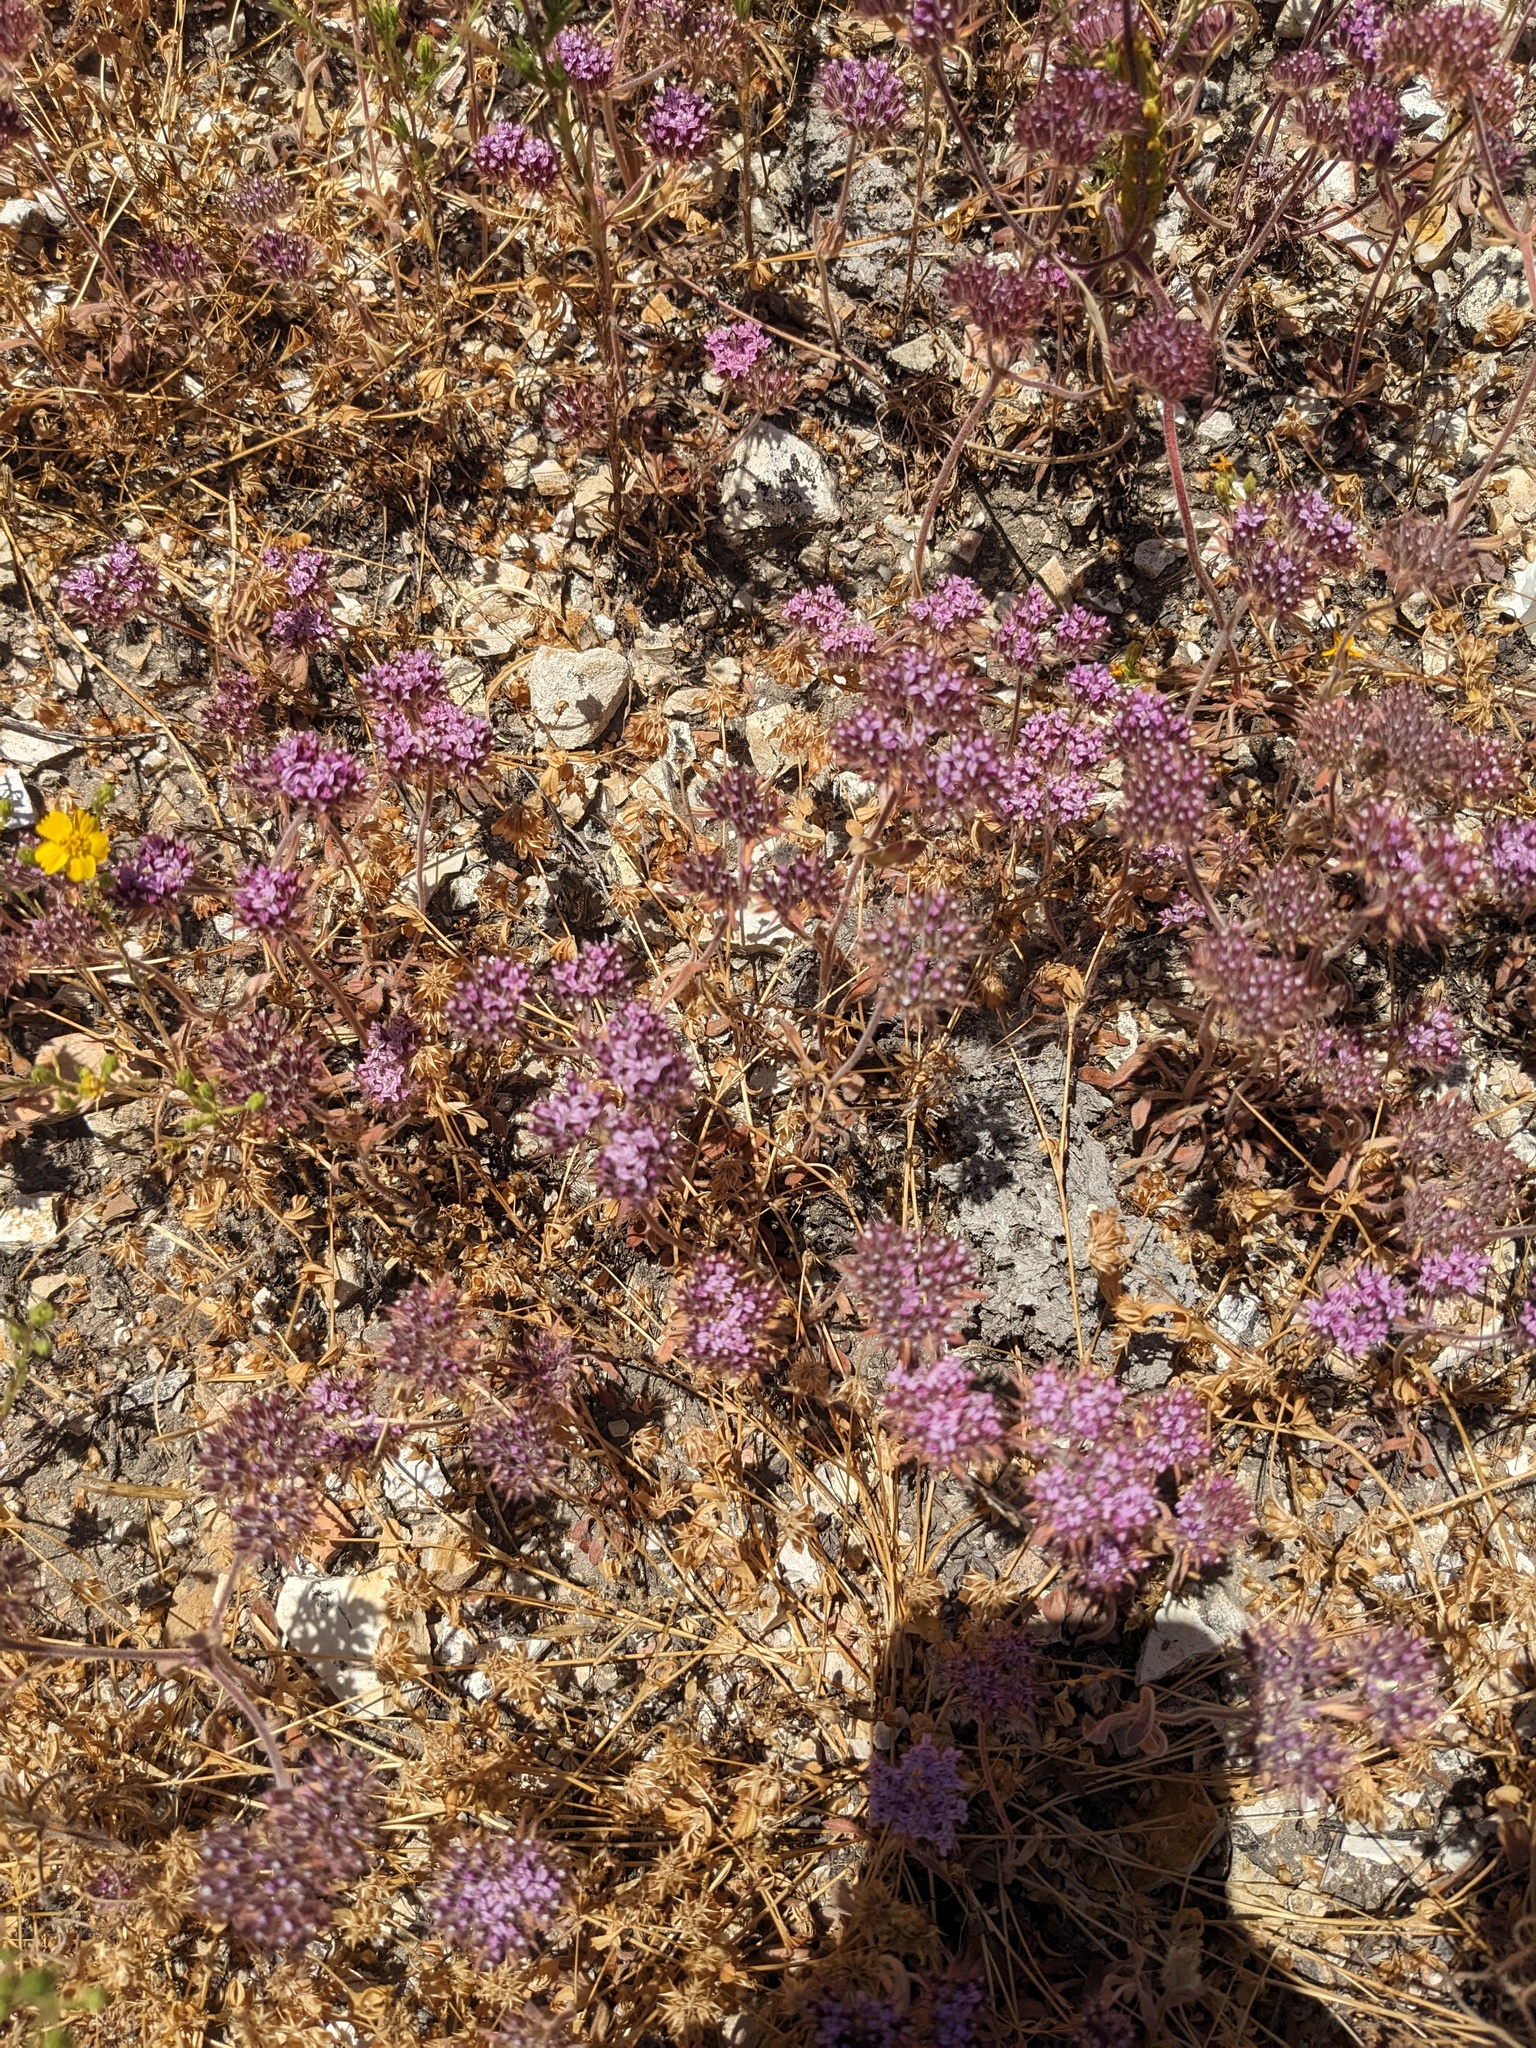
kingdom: Plantae
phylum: Tracheophyta
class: Magnoliopsida
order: Caryophyllales
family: Polygonaceae
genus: Chorizanthe
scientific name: Chorizanthe biloba
